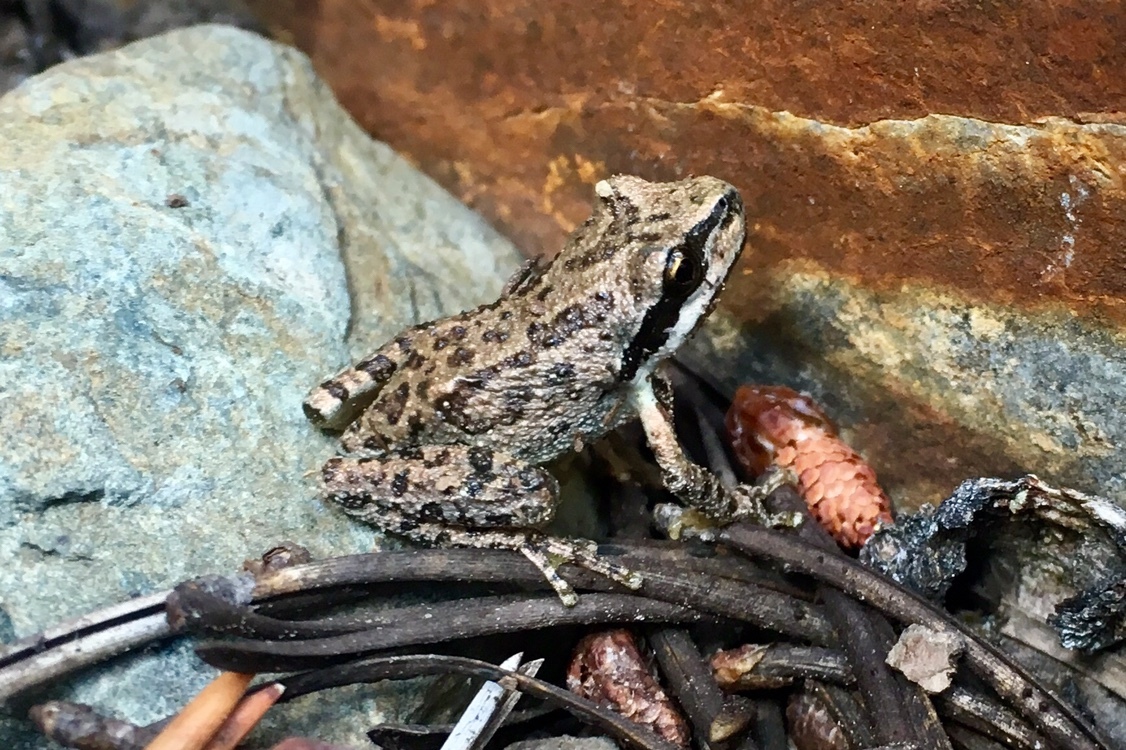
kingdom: Animalia
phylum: Chordata
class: Amphibia
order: Anura
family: Hylidae
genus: Pseudacris
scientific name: Pseudacris regilla
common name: Pacific chorus frog
